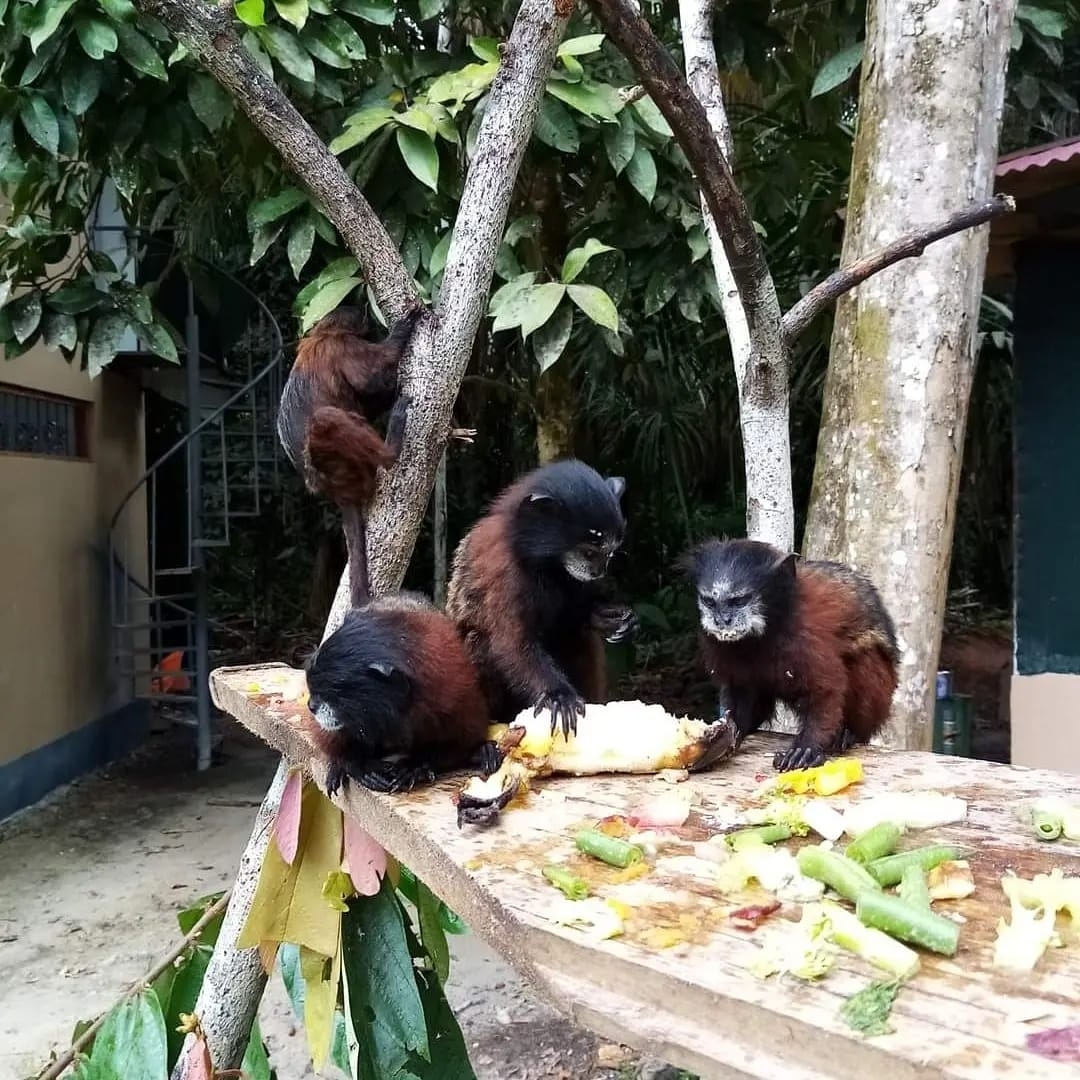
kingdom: Animalia
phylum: Chordata
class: Mammalia
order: Primates
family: Callitrichidae
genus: Leontocebus
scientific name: Leontocebus lagonotus
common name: Red-mantled saddle-back tamarin
